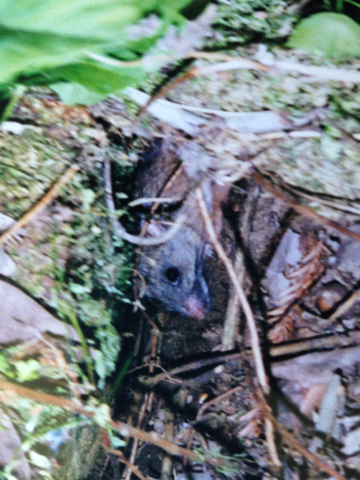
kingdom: Animalia
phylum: Chordata
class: Mammalia
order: Rodentia
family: Cricetidae
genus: Neotoma
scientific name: Neotoma fuscipes
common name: Dusky-footed woodrat
